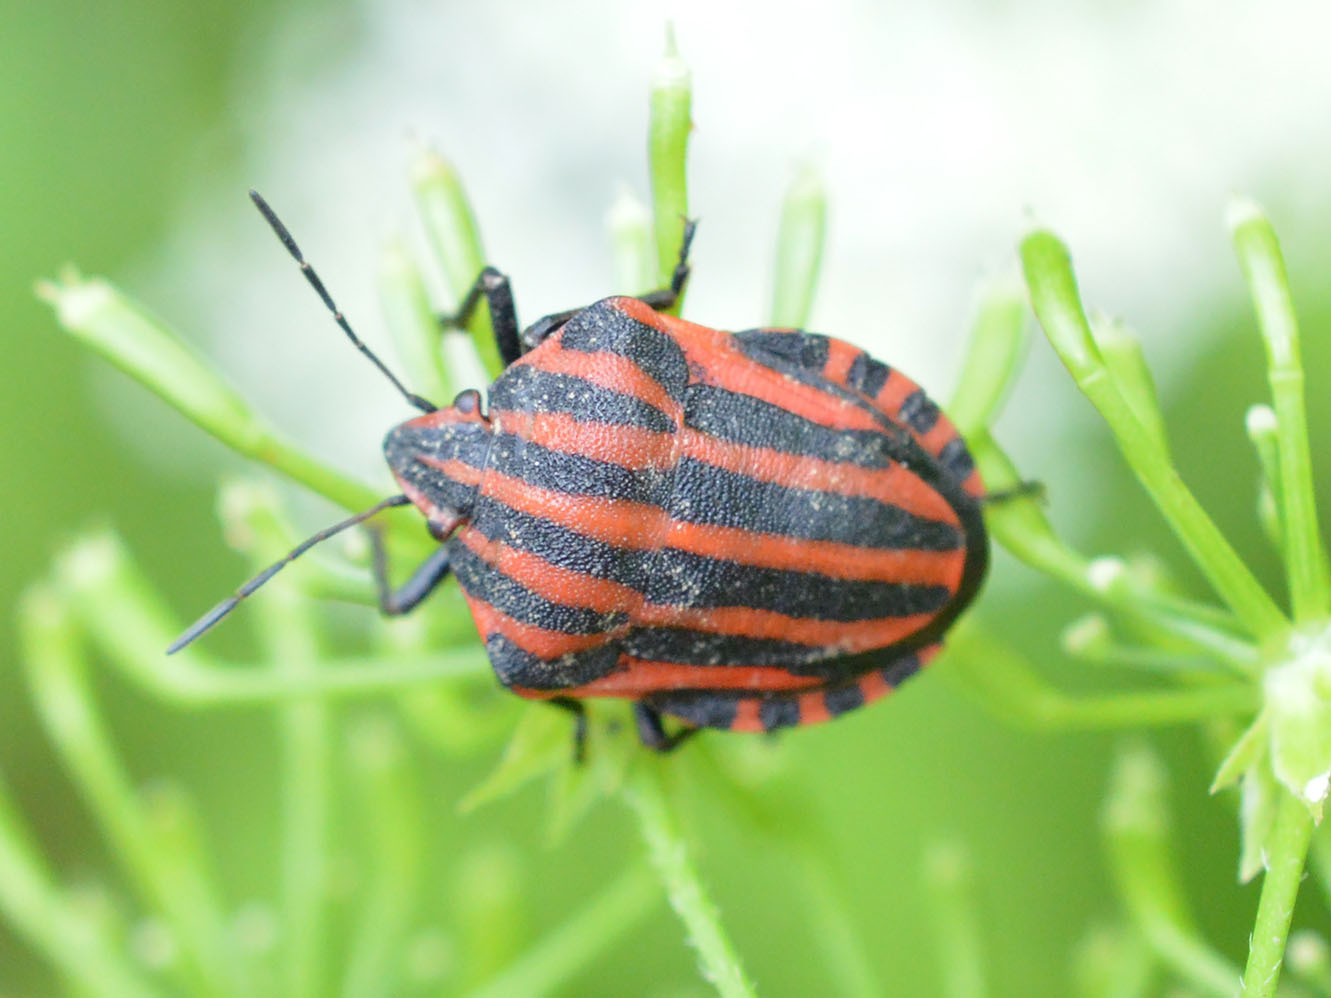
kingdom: Animalia
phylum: Arthropoda
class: Insecta
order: Hemiptera
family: Pentatomidae
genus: Graphosoma
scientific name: Graphosoma italicum
